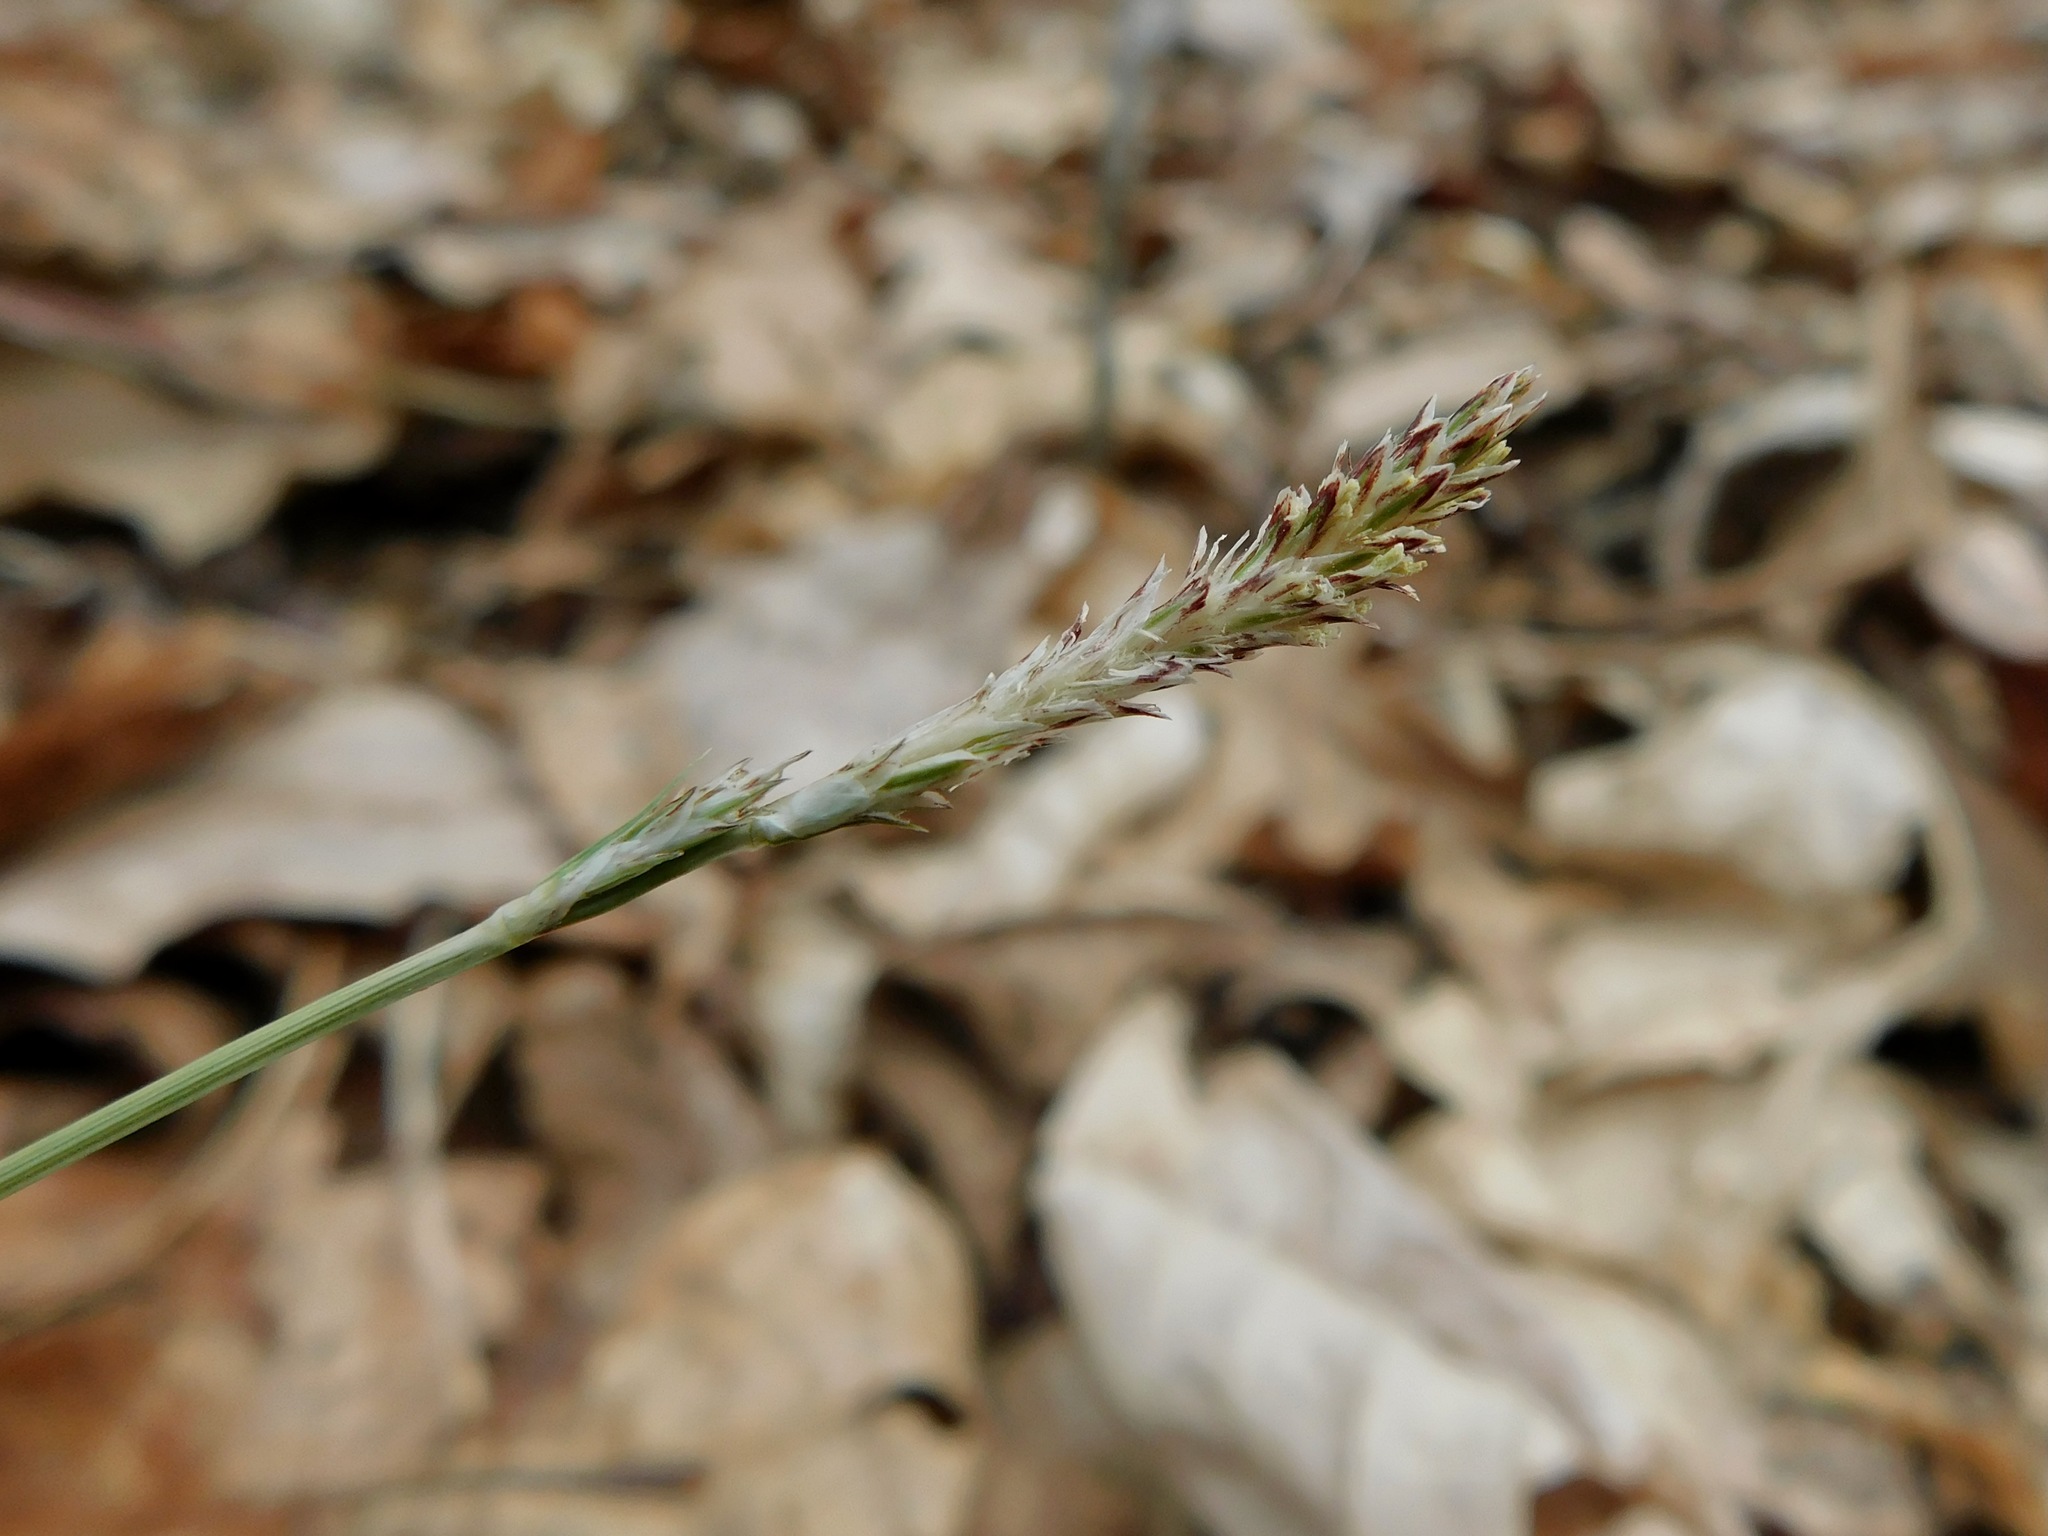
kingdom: Plantae
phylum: Tracheophyta
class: Liliopsida
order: Poales
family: Cyperaceae
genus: Carex
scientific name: Carex pensylvanica
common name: Common oak sedge
